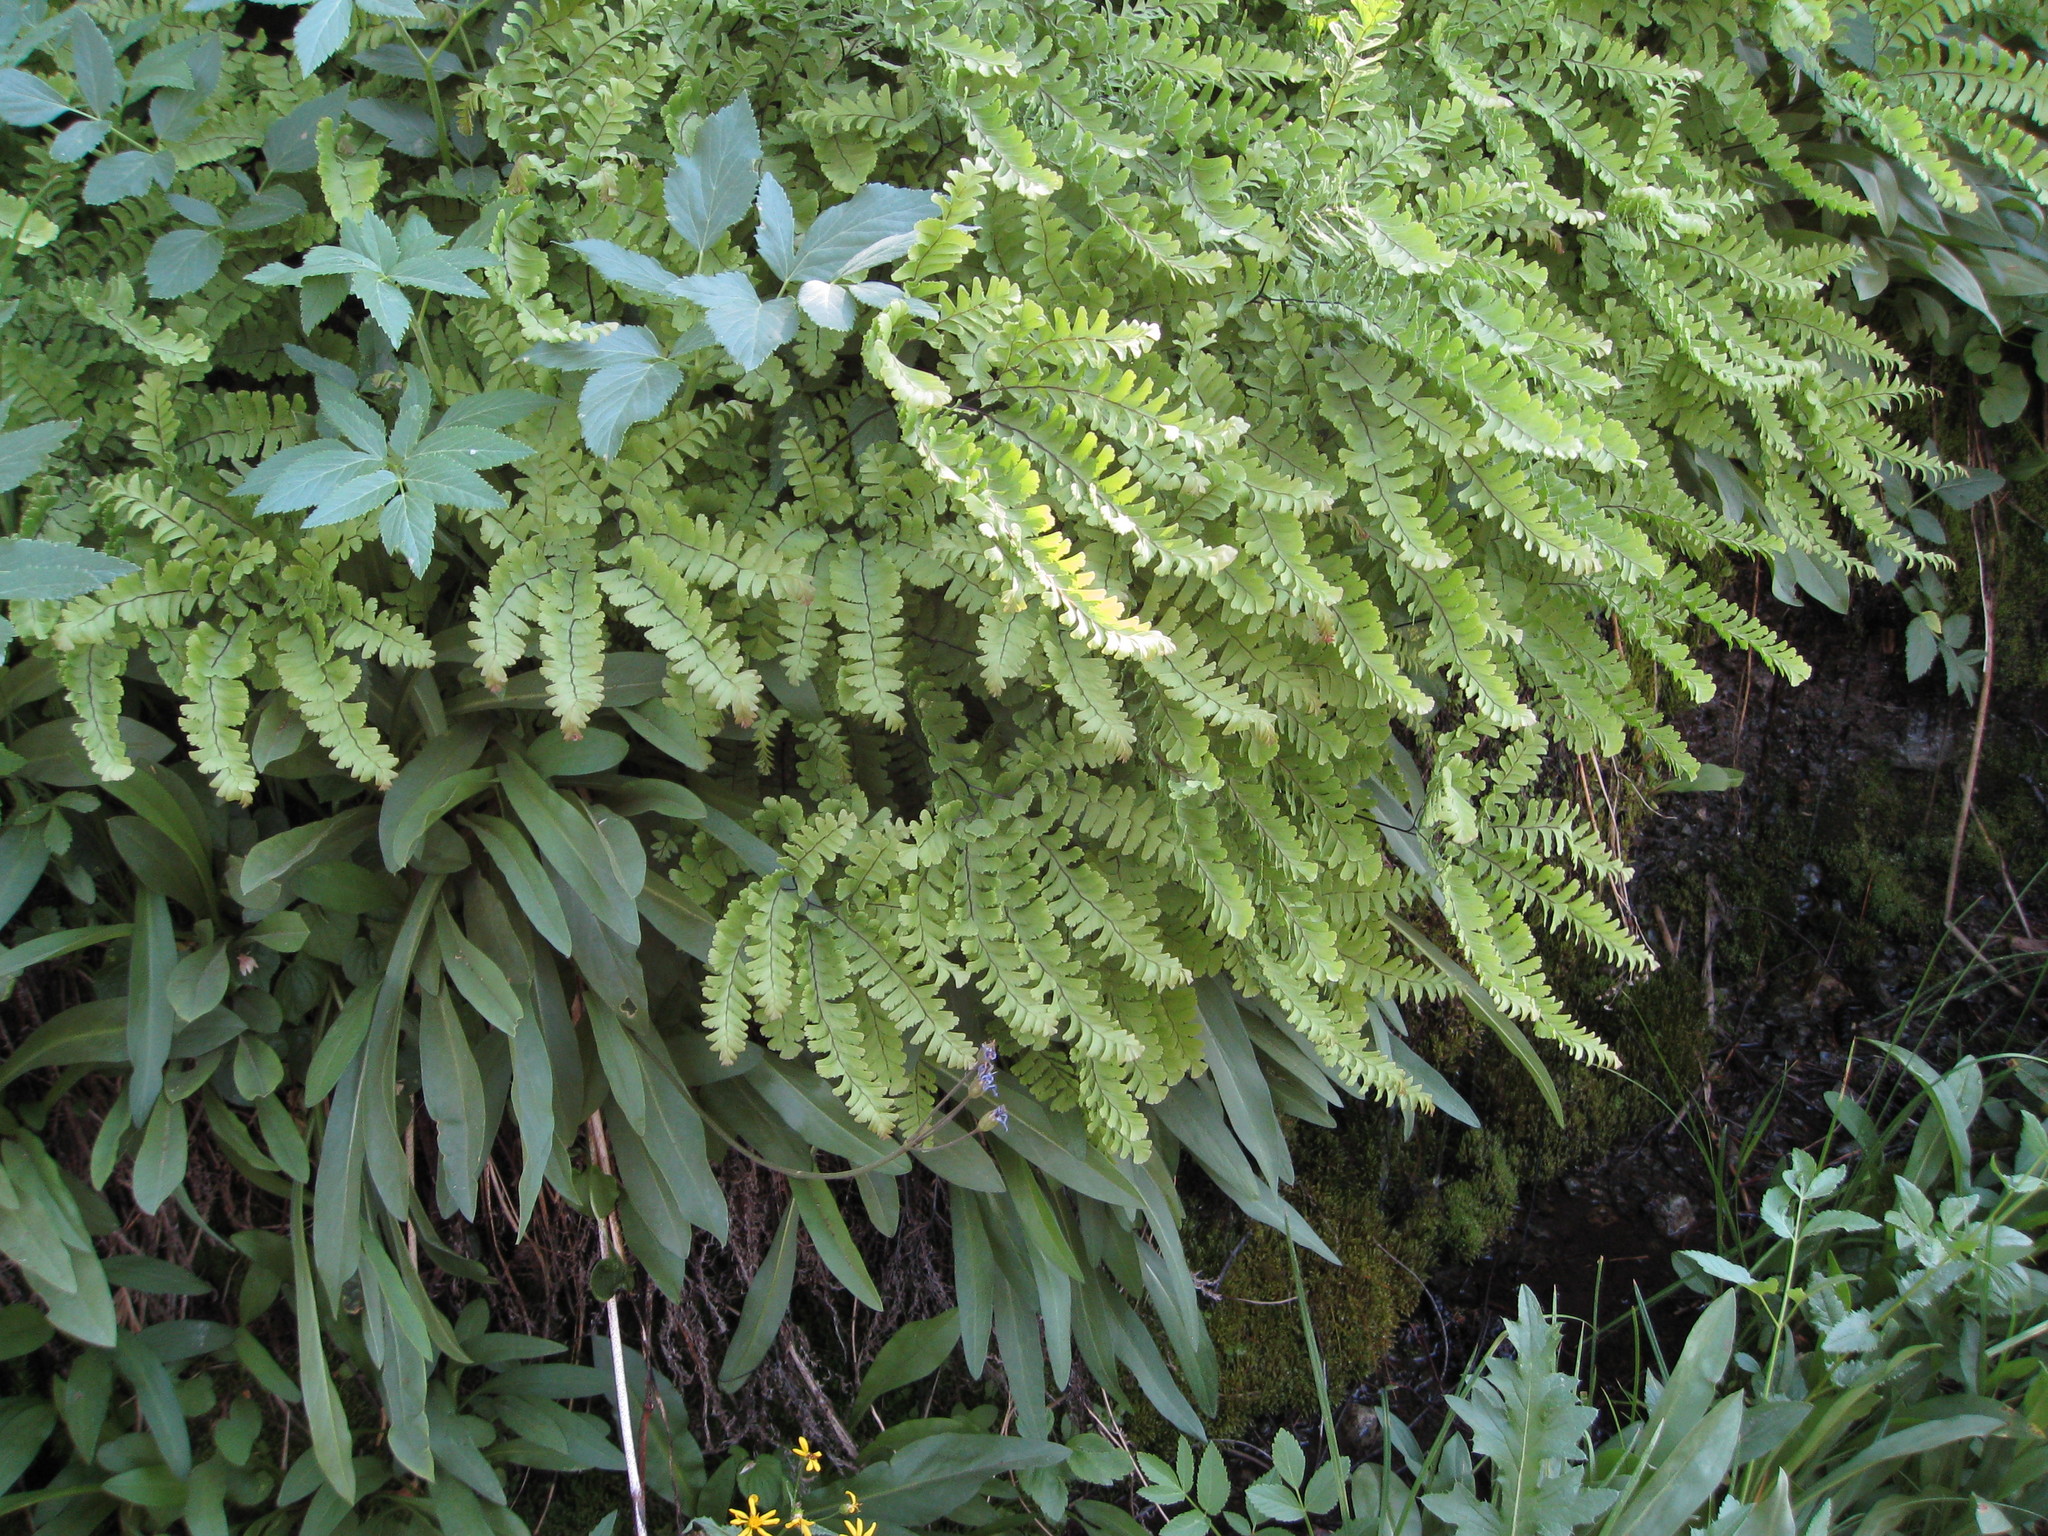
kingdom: Plantae
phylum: Tracheophyta
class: Polypodiopsida
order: Polypodiales
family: Pteridaceae
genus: Adiantum
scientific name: Adiantum aleuticum
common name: Aleutian maidenhair fern
